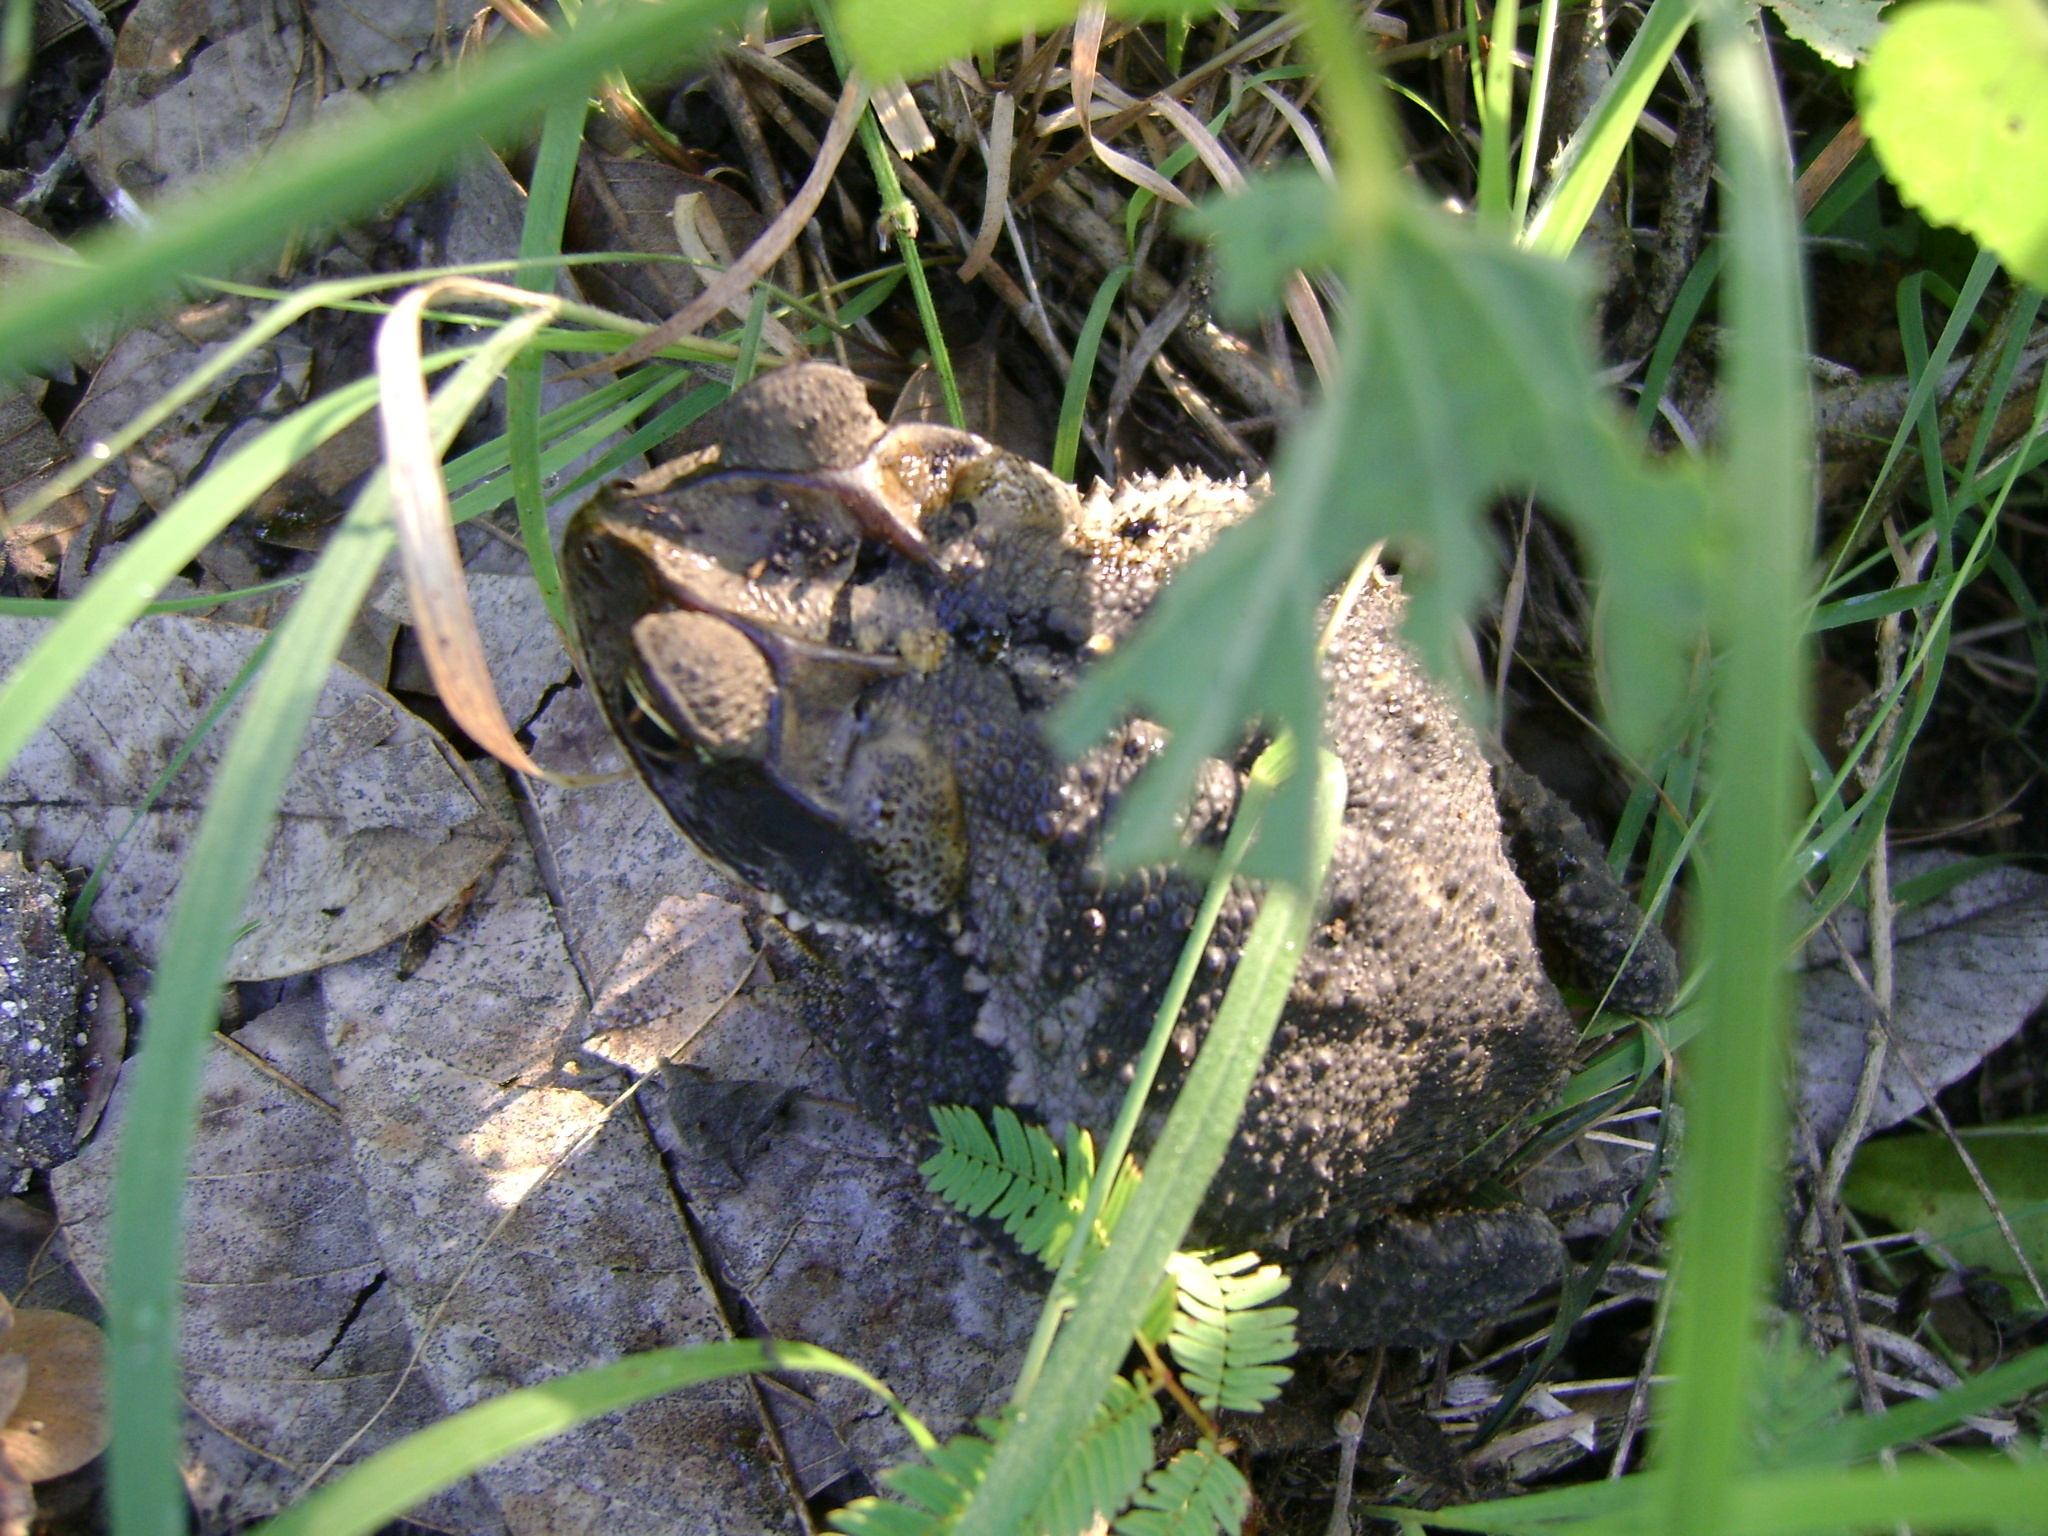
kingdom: Animalia
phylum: Chordata
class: Amphibia
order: Anura
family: Bufonidae
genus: Incilius
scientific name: Incilius valliceps
